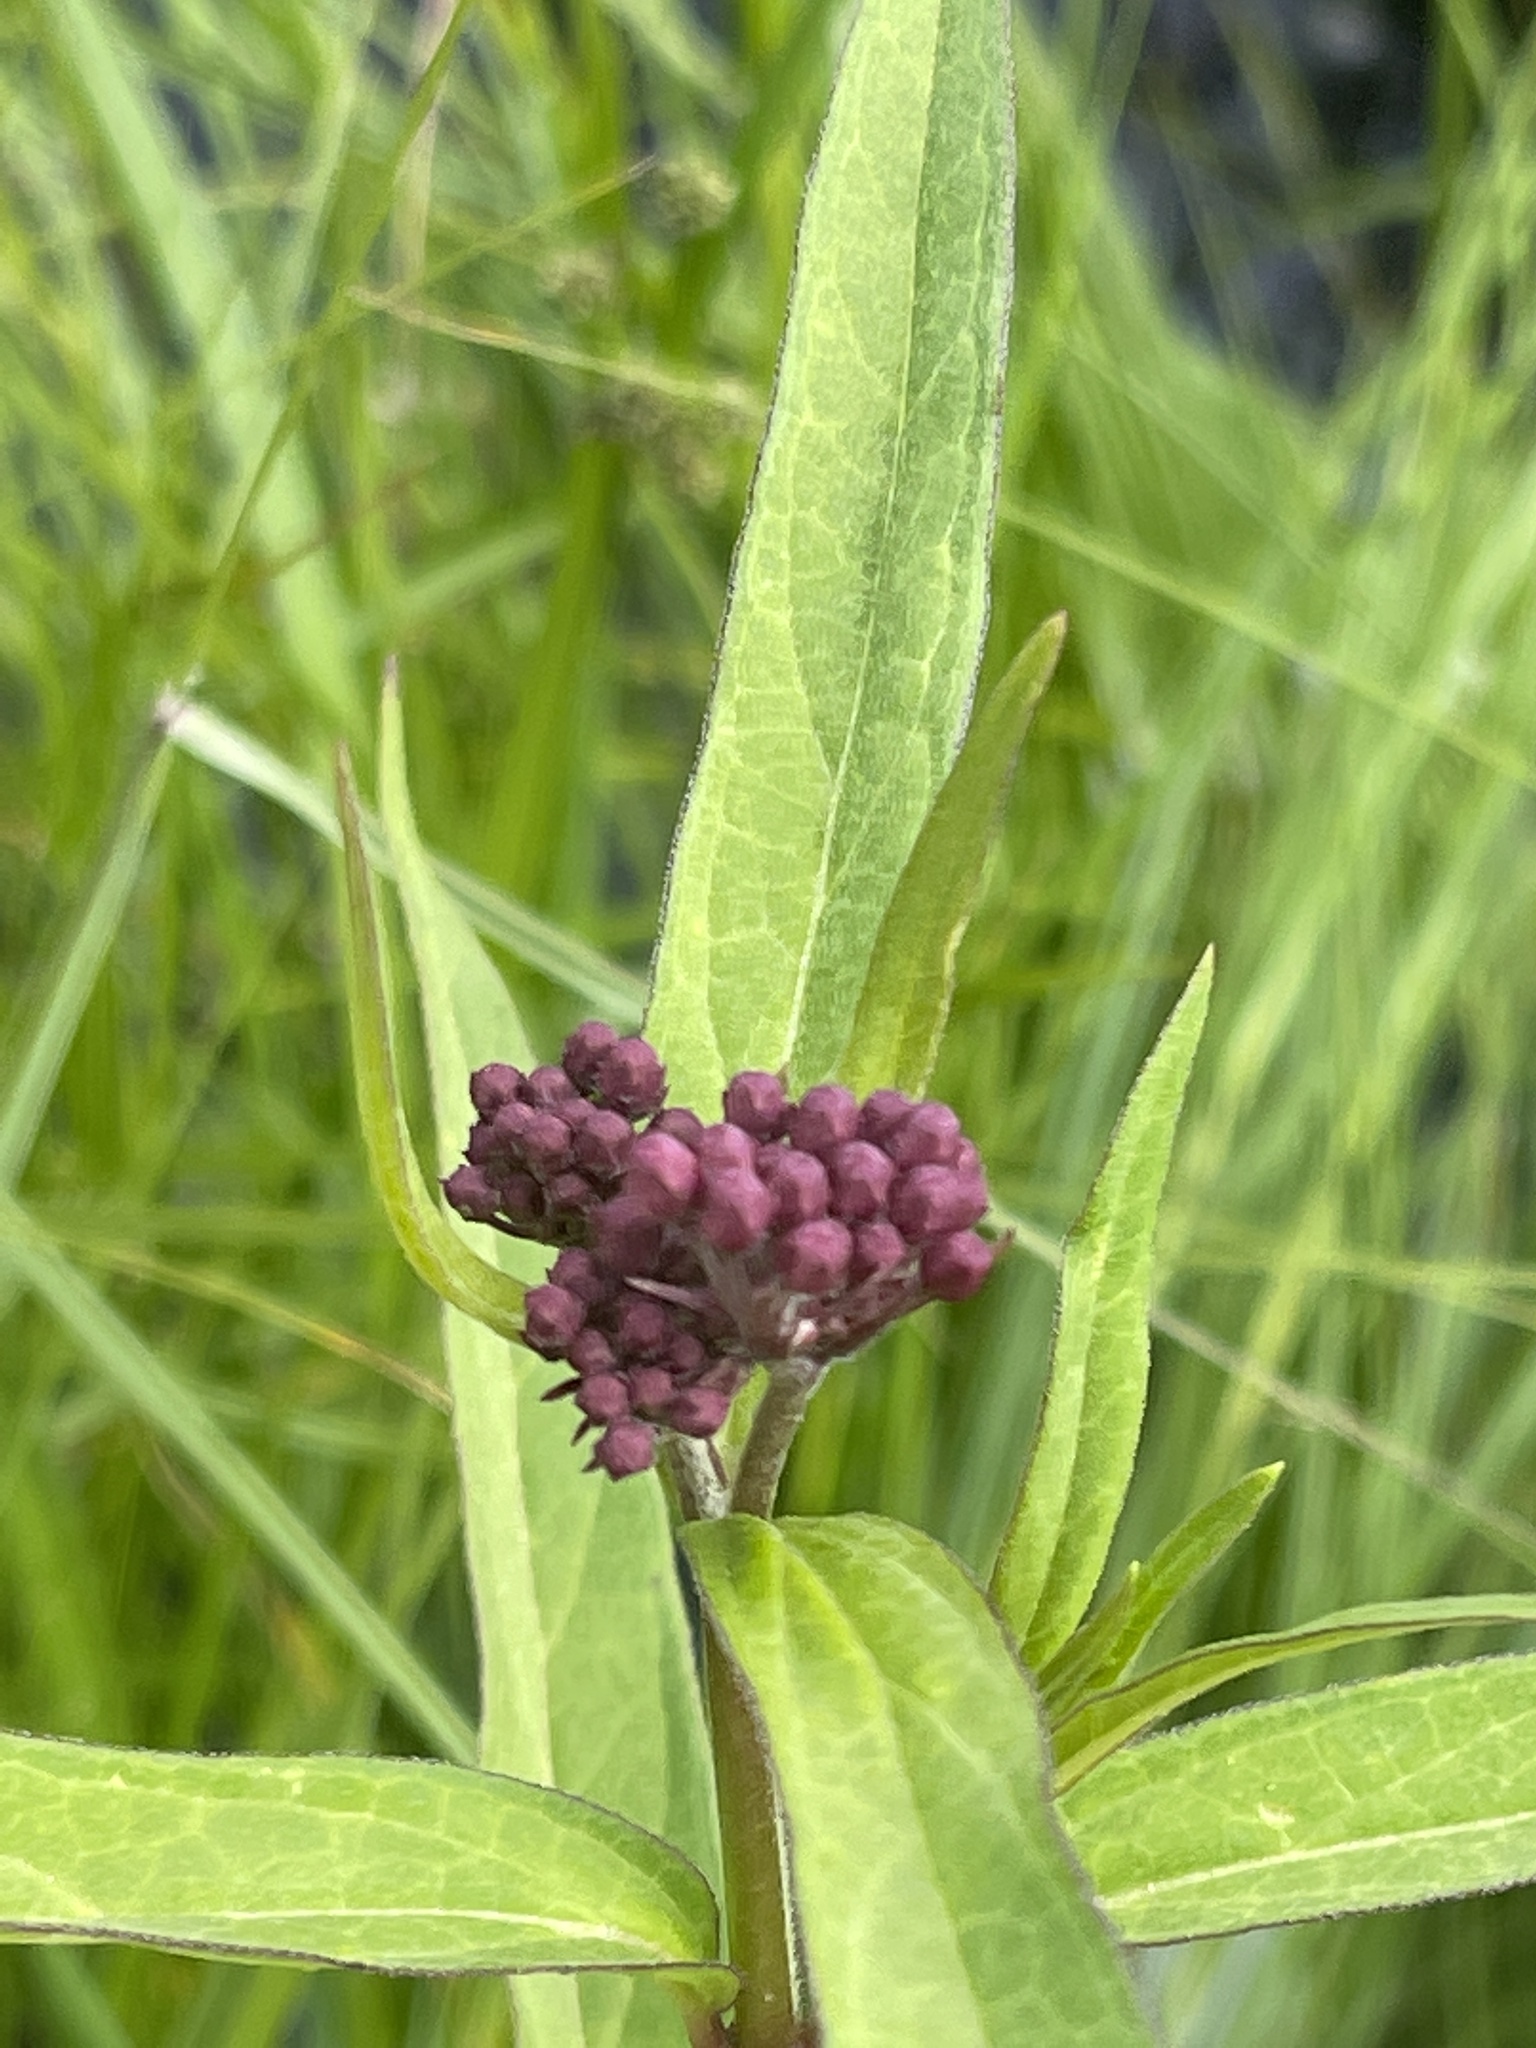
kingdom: Plantae
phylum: Tracheophyta
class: Magnoliopsida
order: Gentianales
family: Apocynaceae
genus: Asclepias
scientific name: Asclepias incarnata
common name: Swamp milkweed
